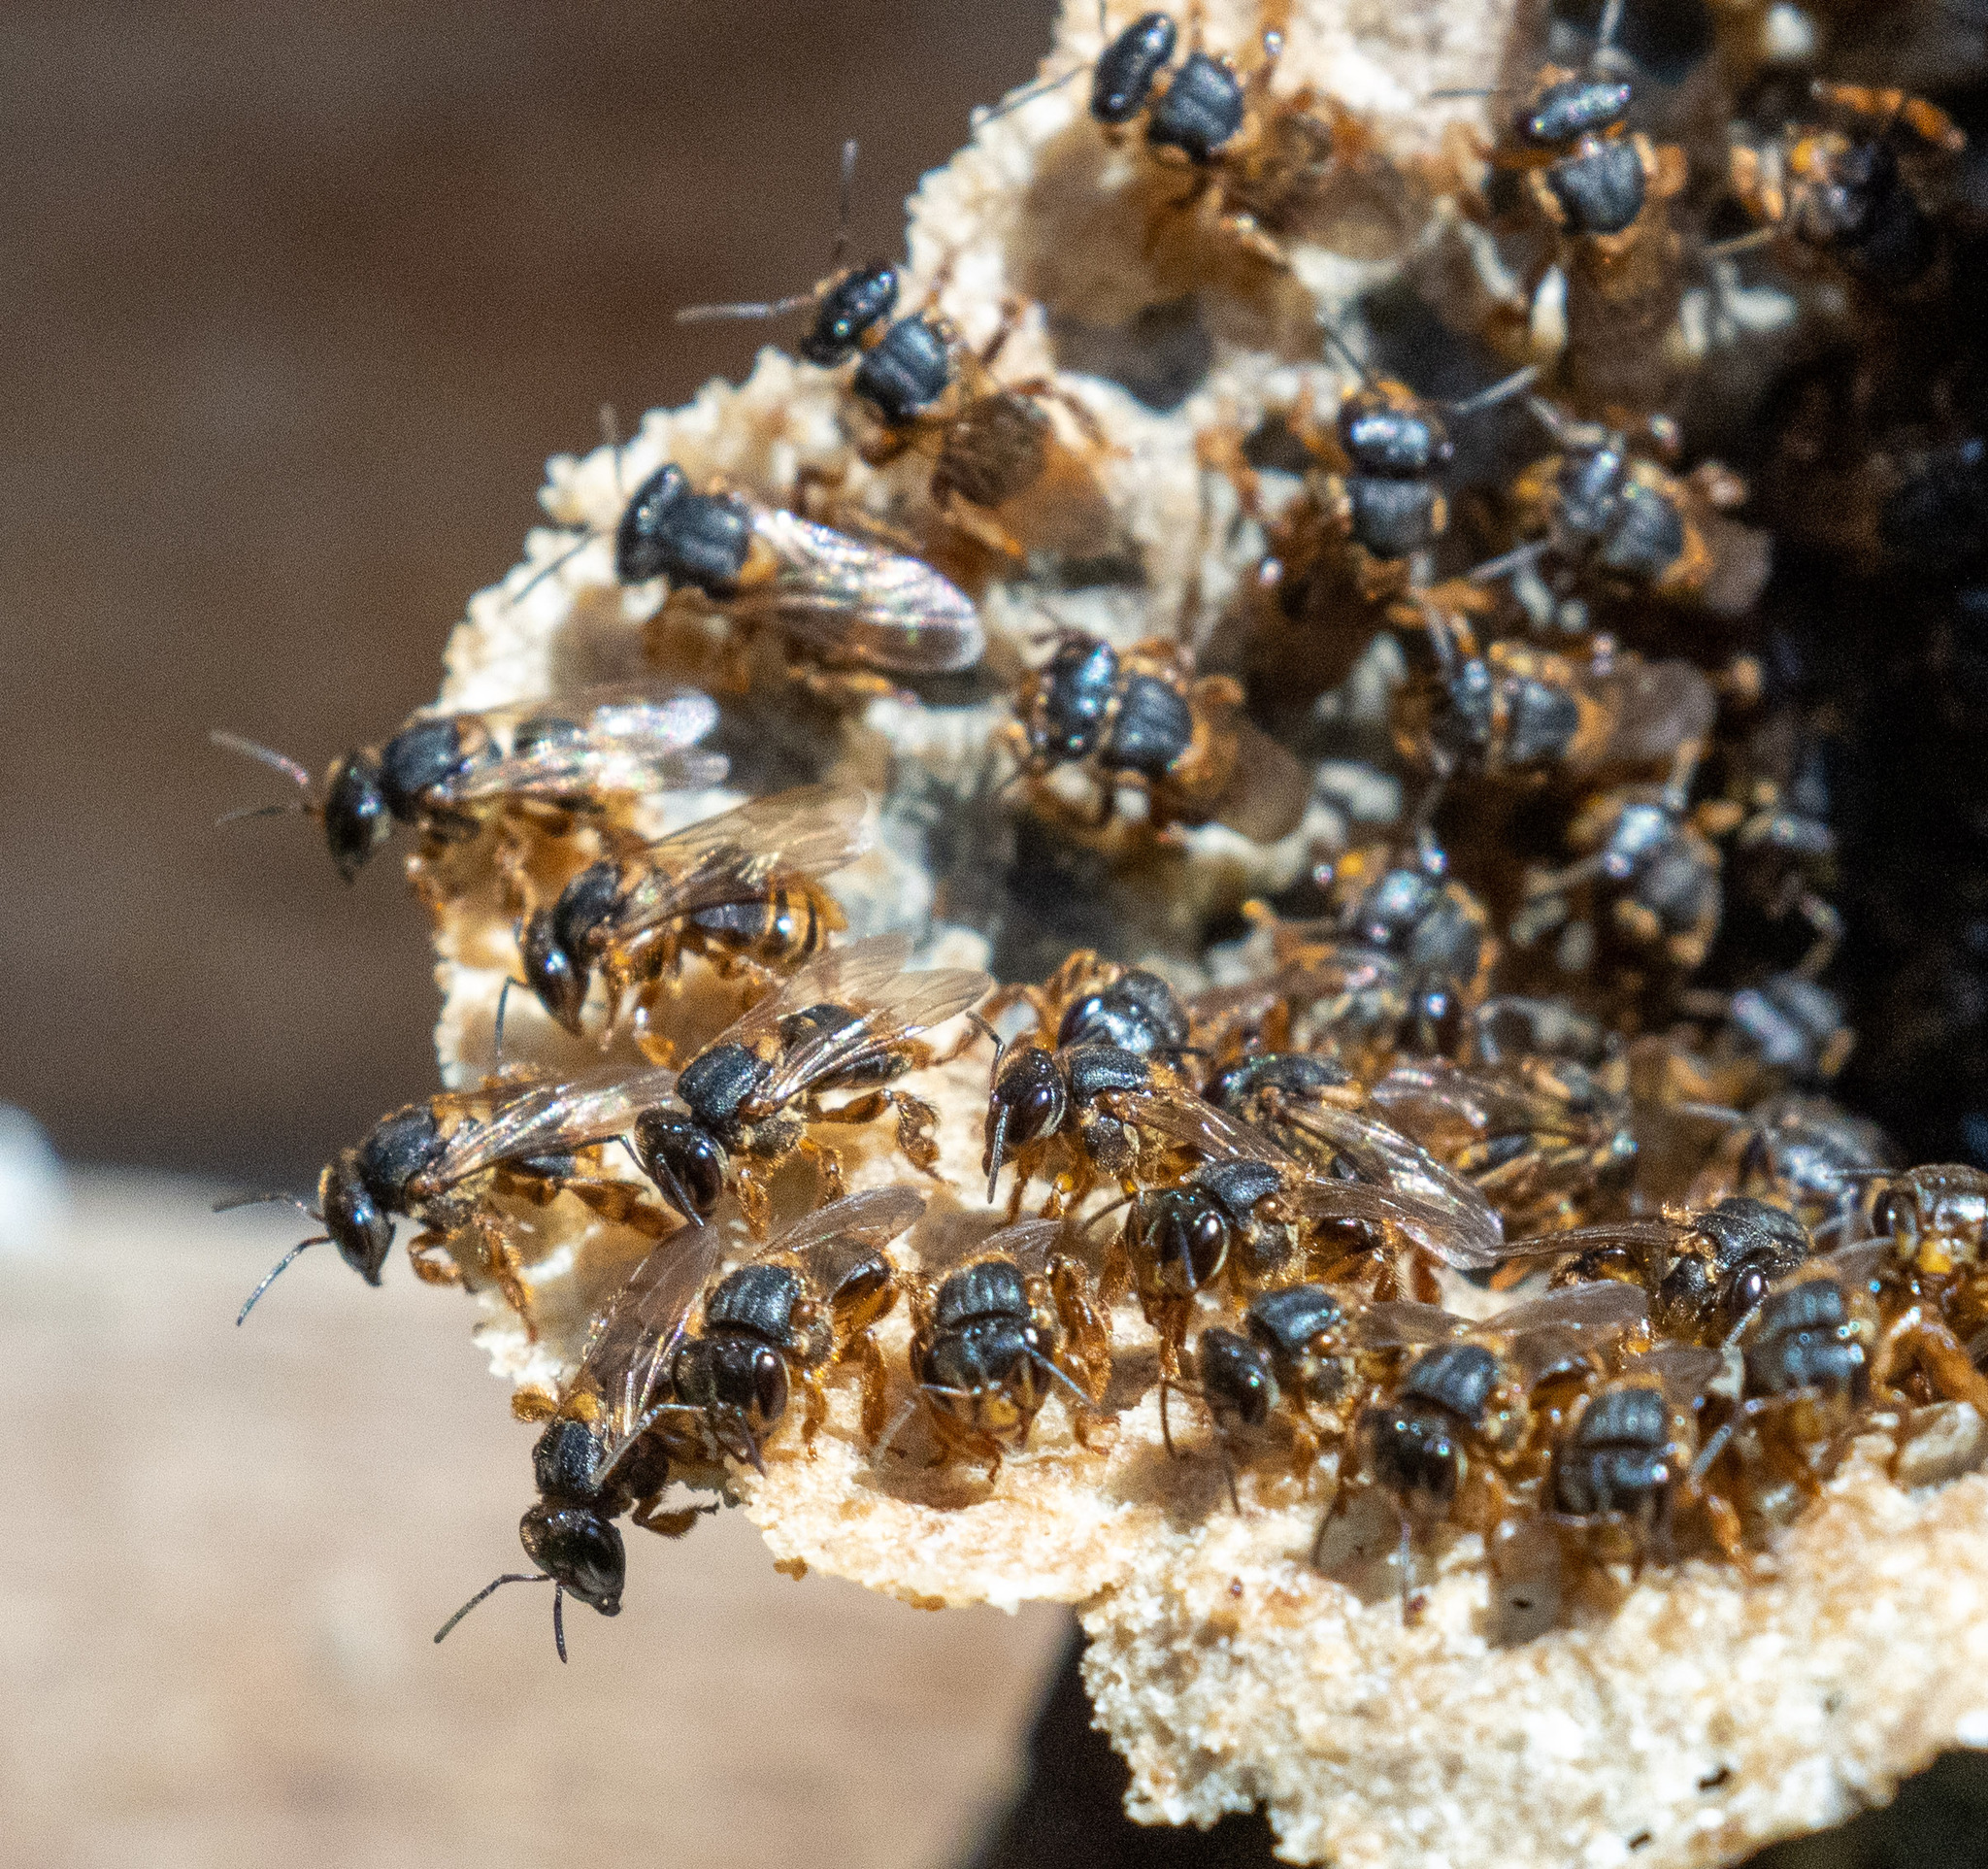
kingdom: Animalia
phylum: Arthropoda
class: Insecta
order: Hymenoptera
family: Apidae
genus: Scaptotrigona
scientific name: Scaptotrigona xanthotricha
